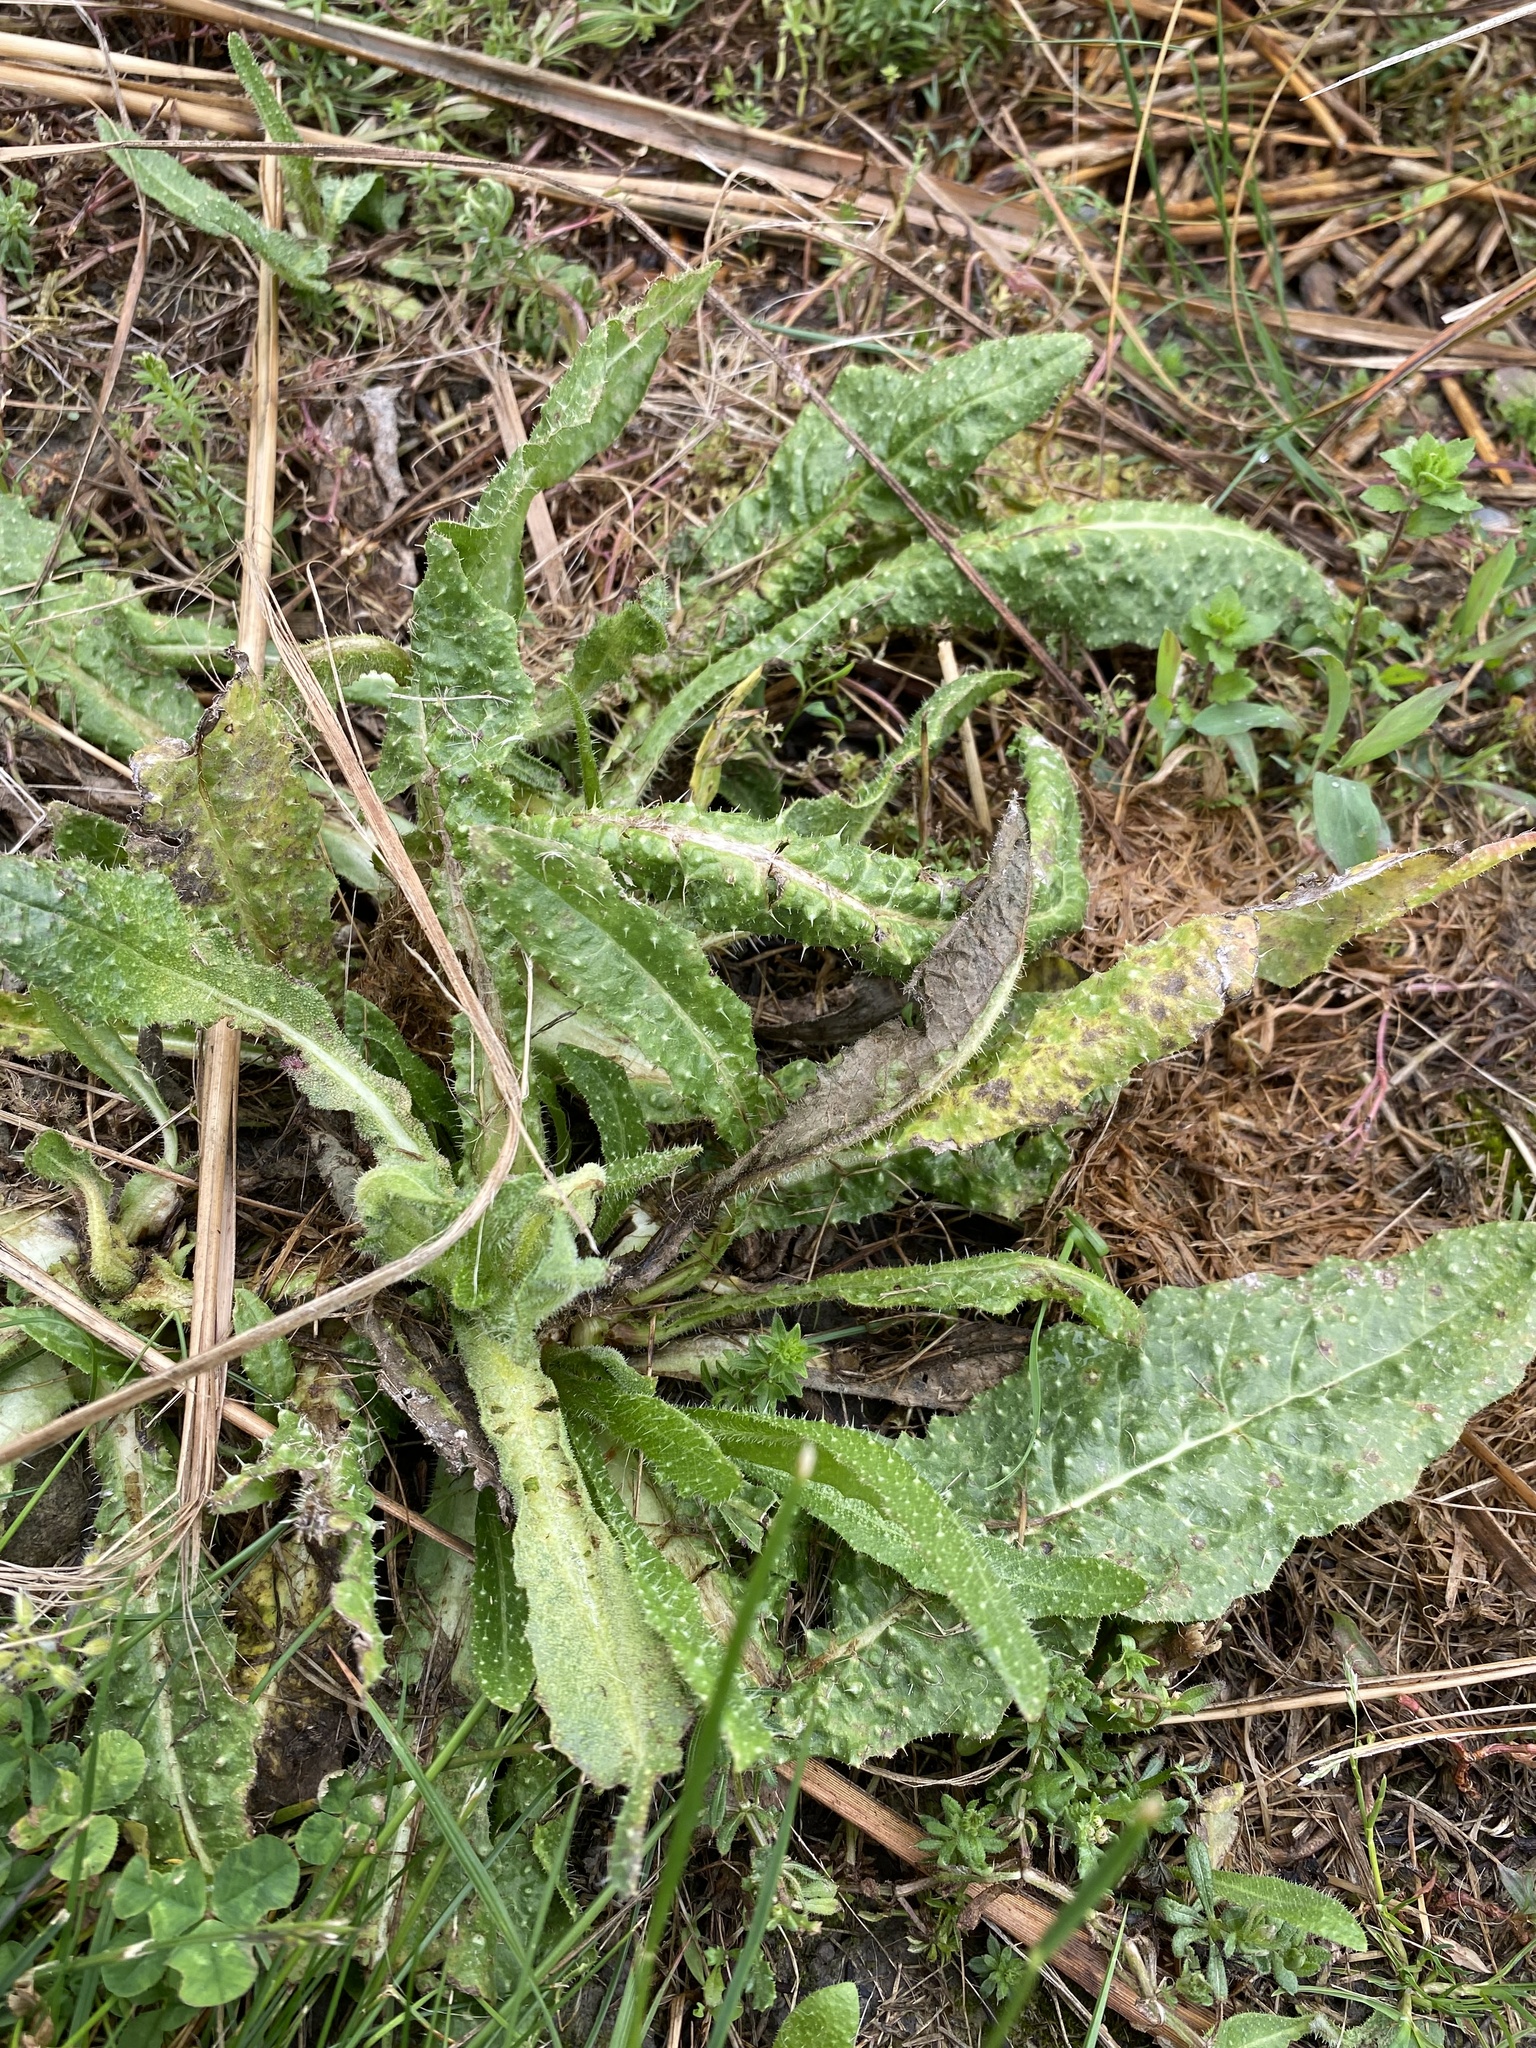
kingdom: Plantae
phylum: Tracheophyta
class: Magnoliopsida
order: Asterales
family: Asteraceae
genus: Helminthotheca
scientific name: Helminthotheca echioides
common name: Ox-tongue
